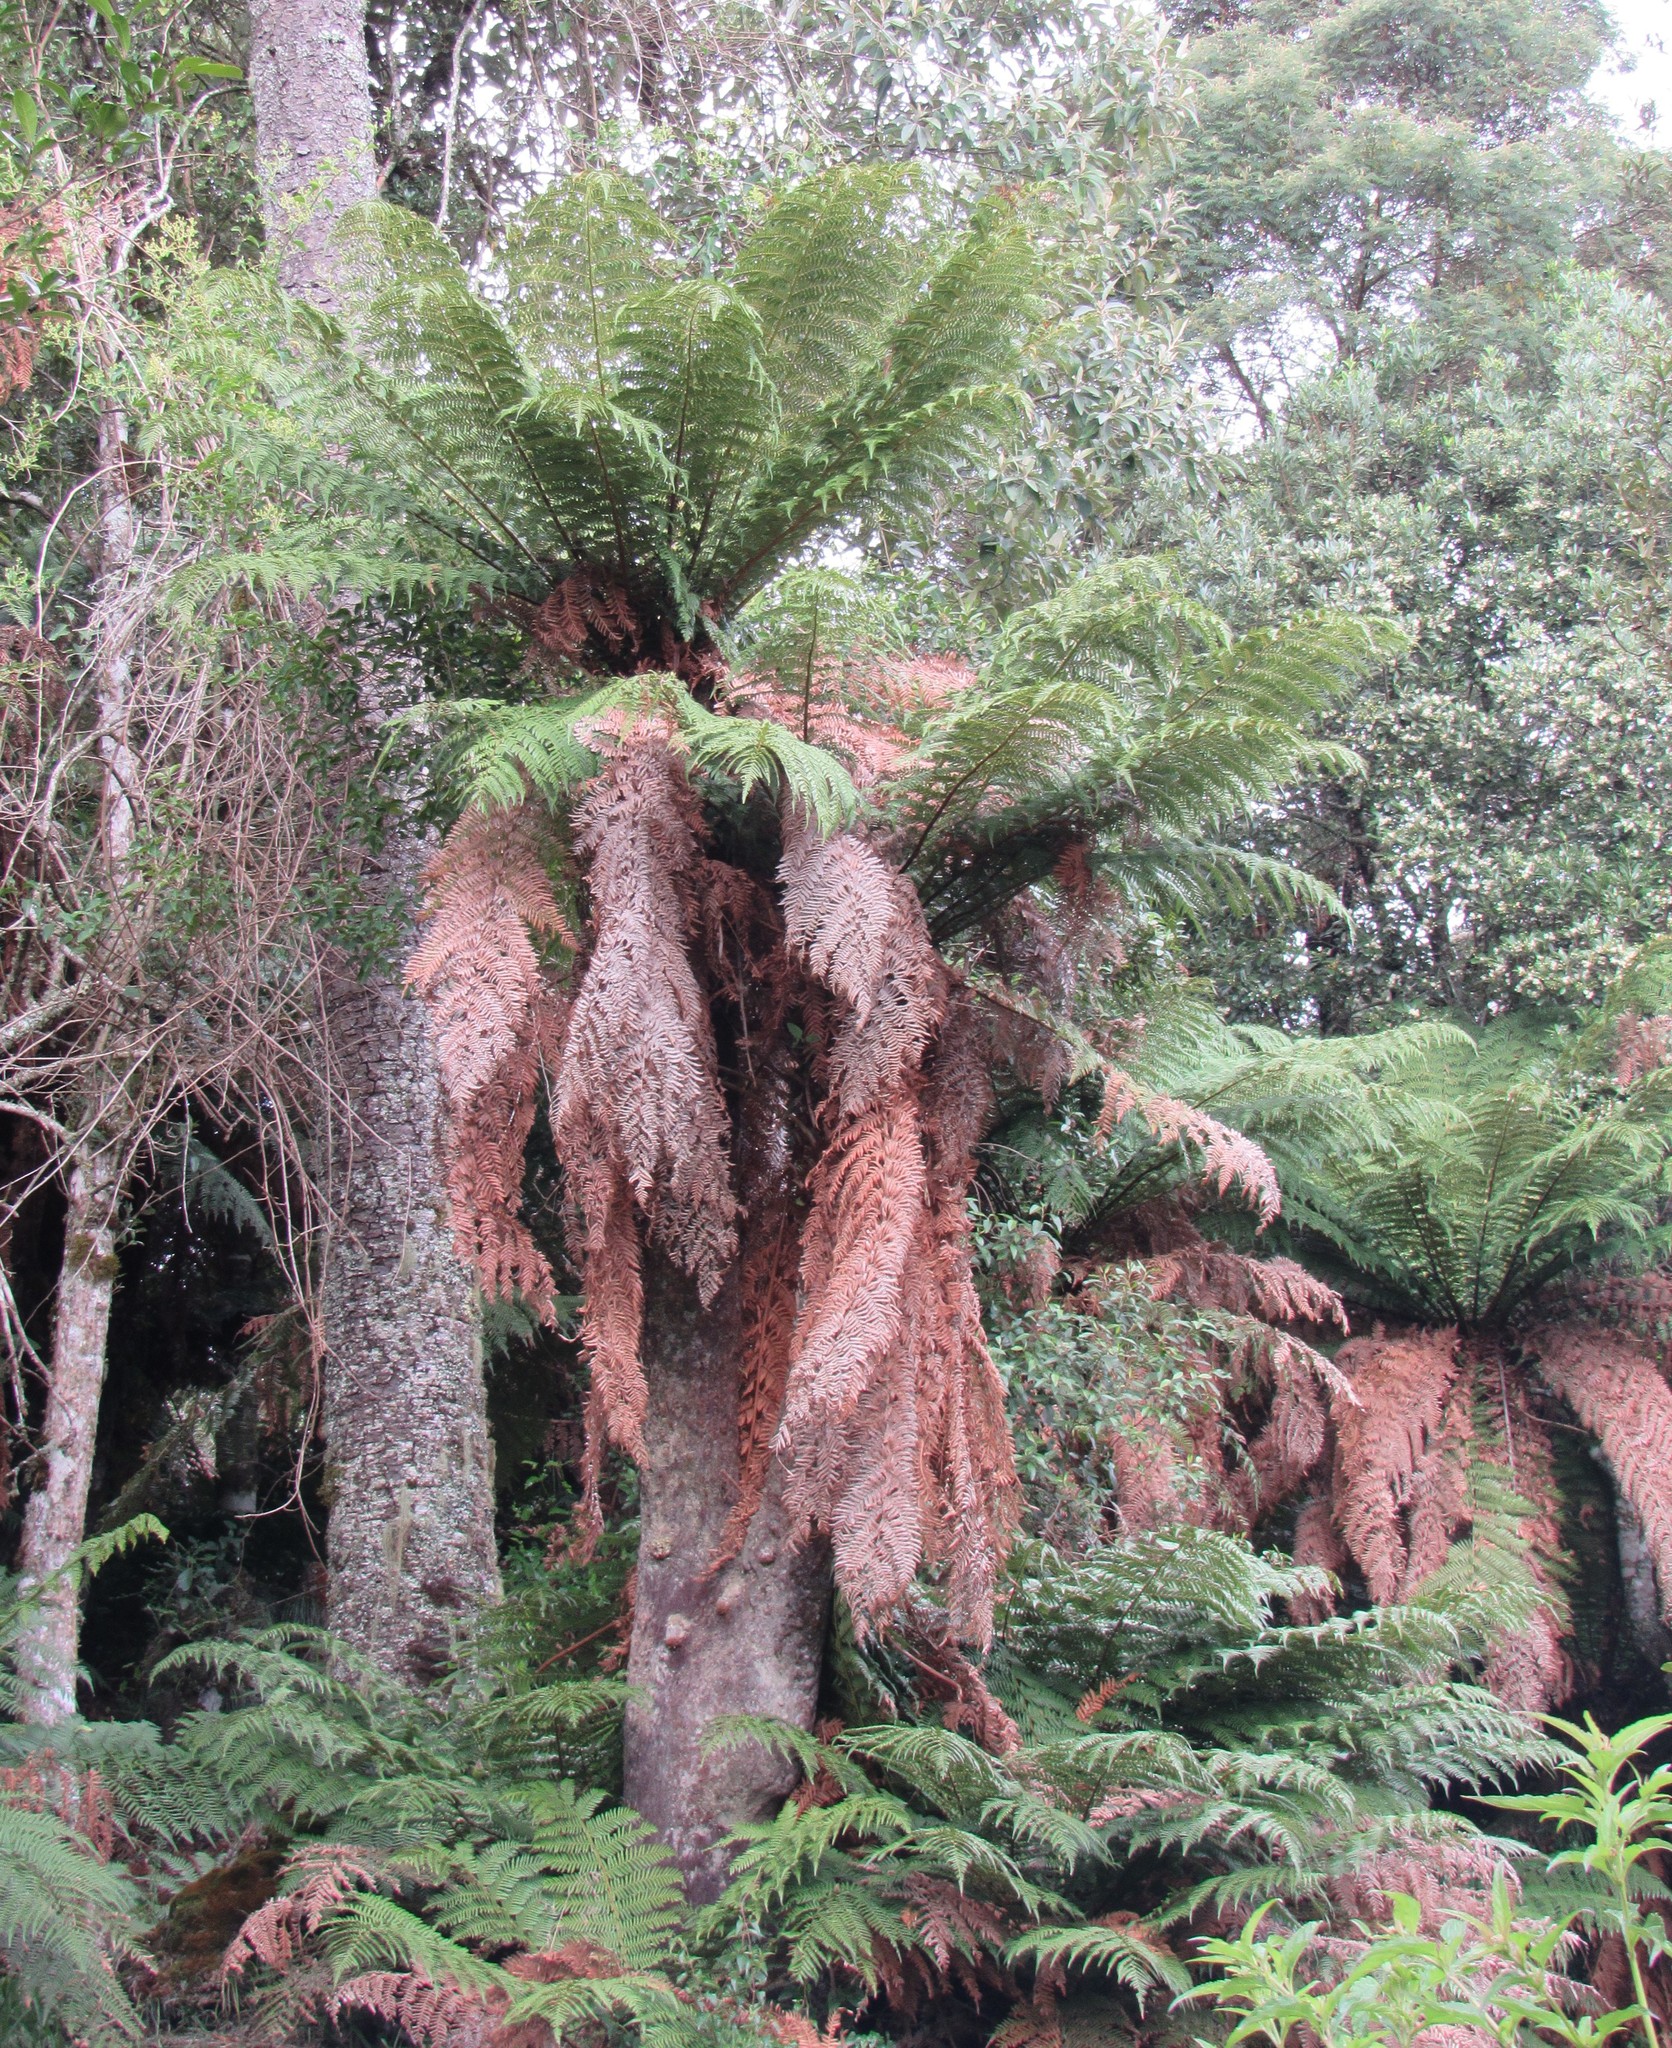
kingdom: Plantae
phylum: Tracheophyta
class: Polypodiopsida
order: Cyatheales
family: Dicksoniaceae
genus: Dicksonia
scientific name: Dicksonia sellowiana
